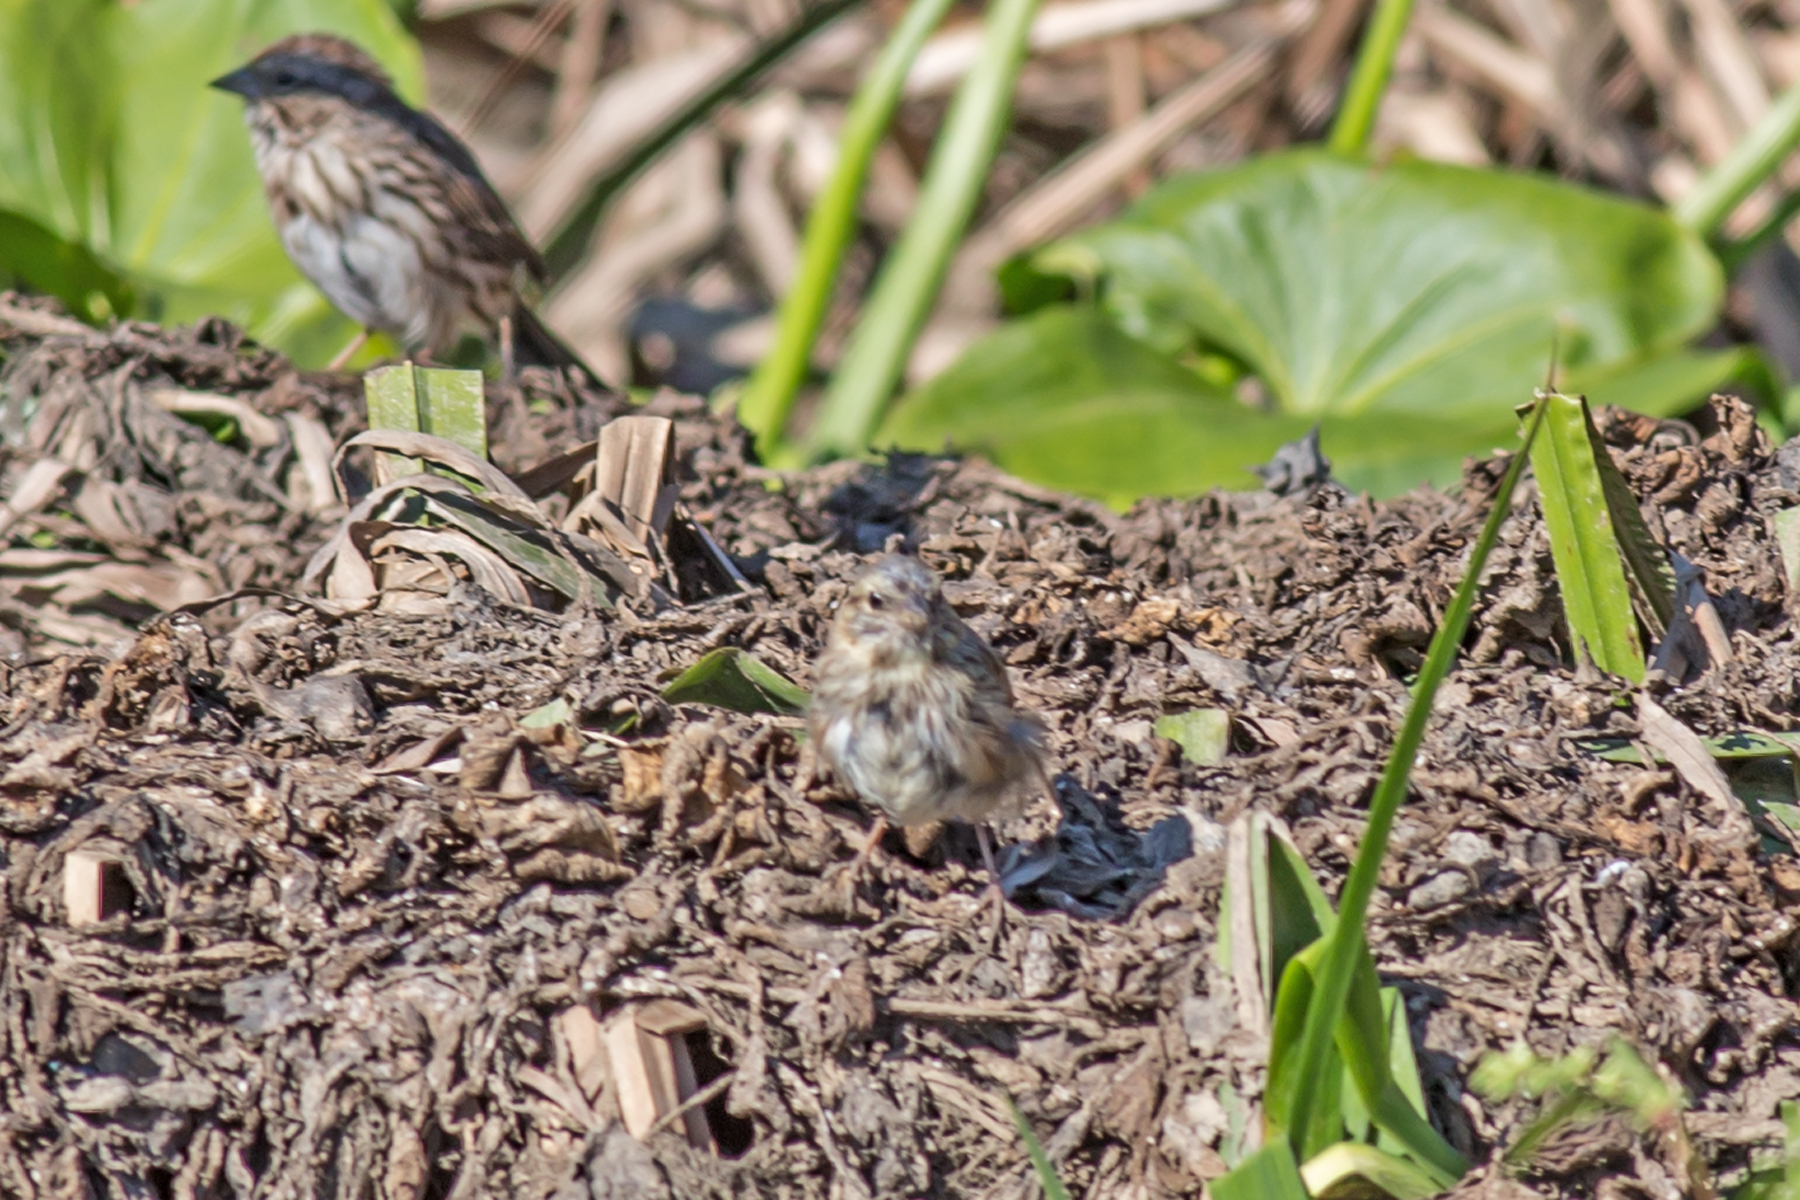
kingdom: Animalia
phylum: Chordata
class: Aves
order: Passeriformes
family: Passerellidae
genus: Melospiza
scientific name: Melospiza melodia
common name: Song sparrow
